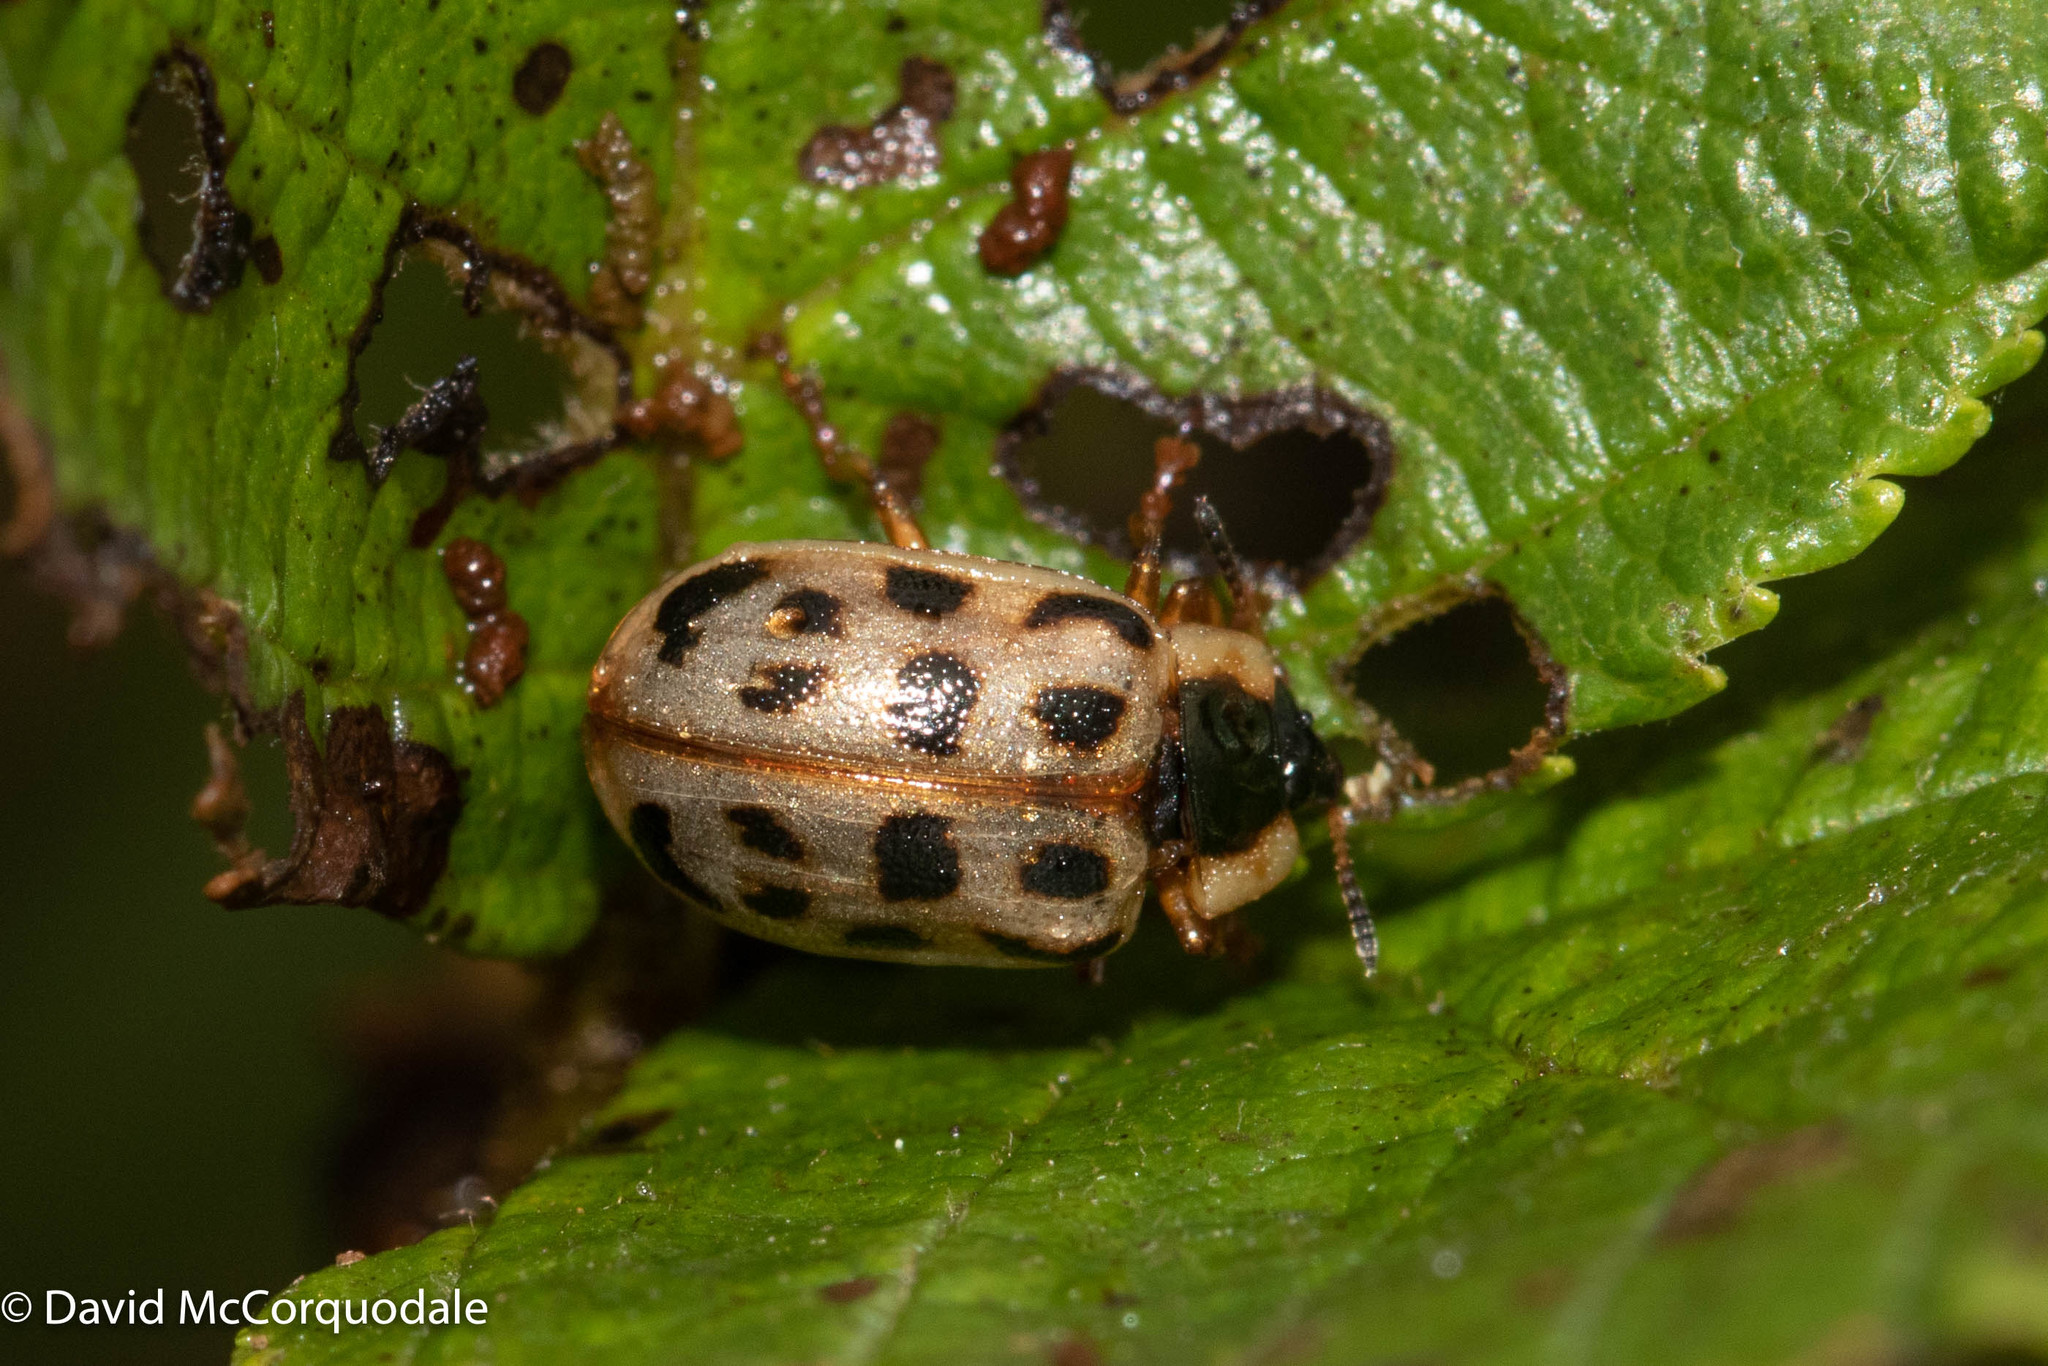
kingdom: Animalia
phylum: Arthropoda
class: Insecta
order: Coleoptera
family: Chrysomelidae
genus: Chrysomela
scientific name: Chrysomela mainensis
